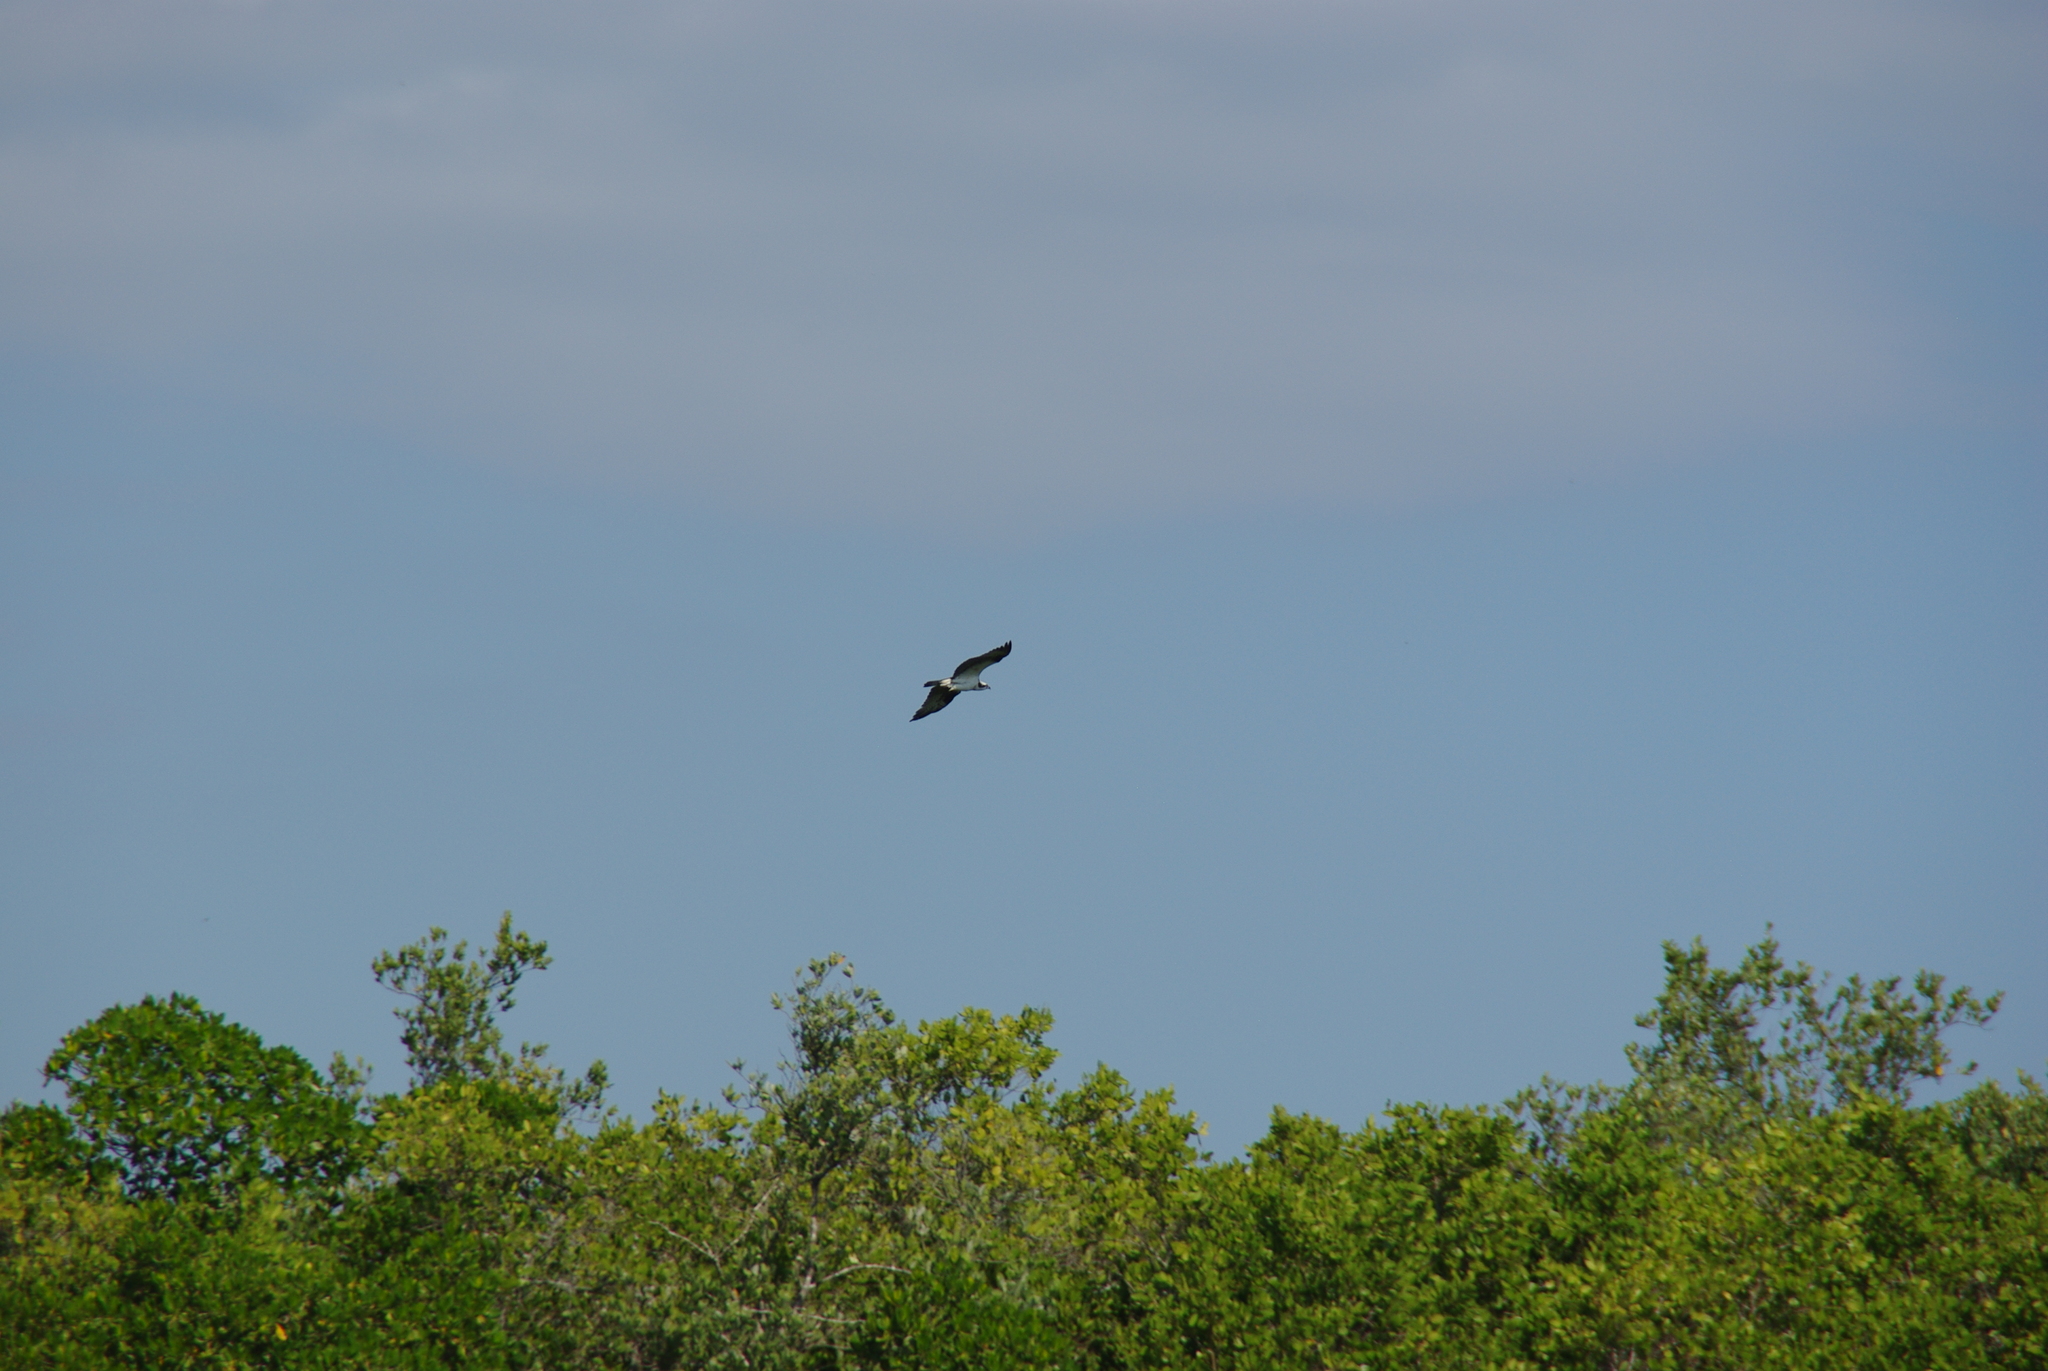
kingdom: Animalia
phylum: Chordata
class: Aves
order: Accipitriformes
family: Pandionidae
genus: Pandion
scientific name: Pandion haliaetus
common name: Osprey
